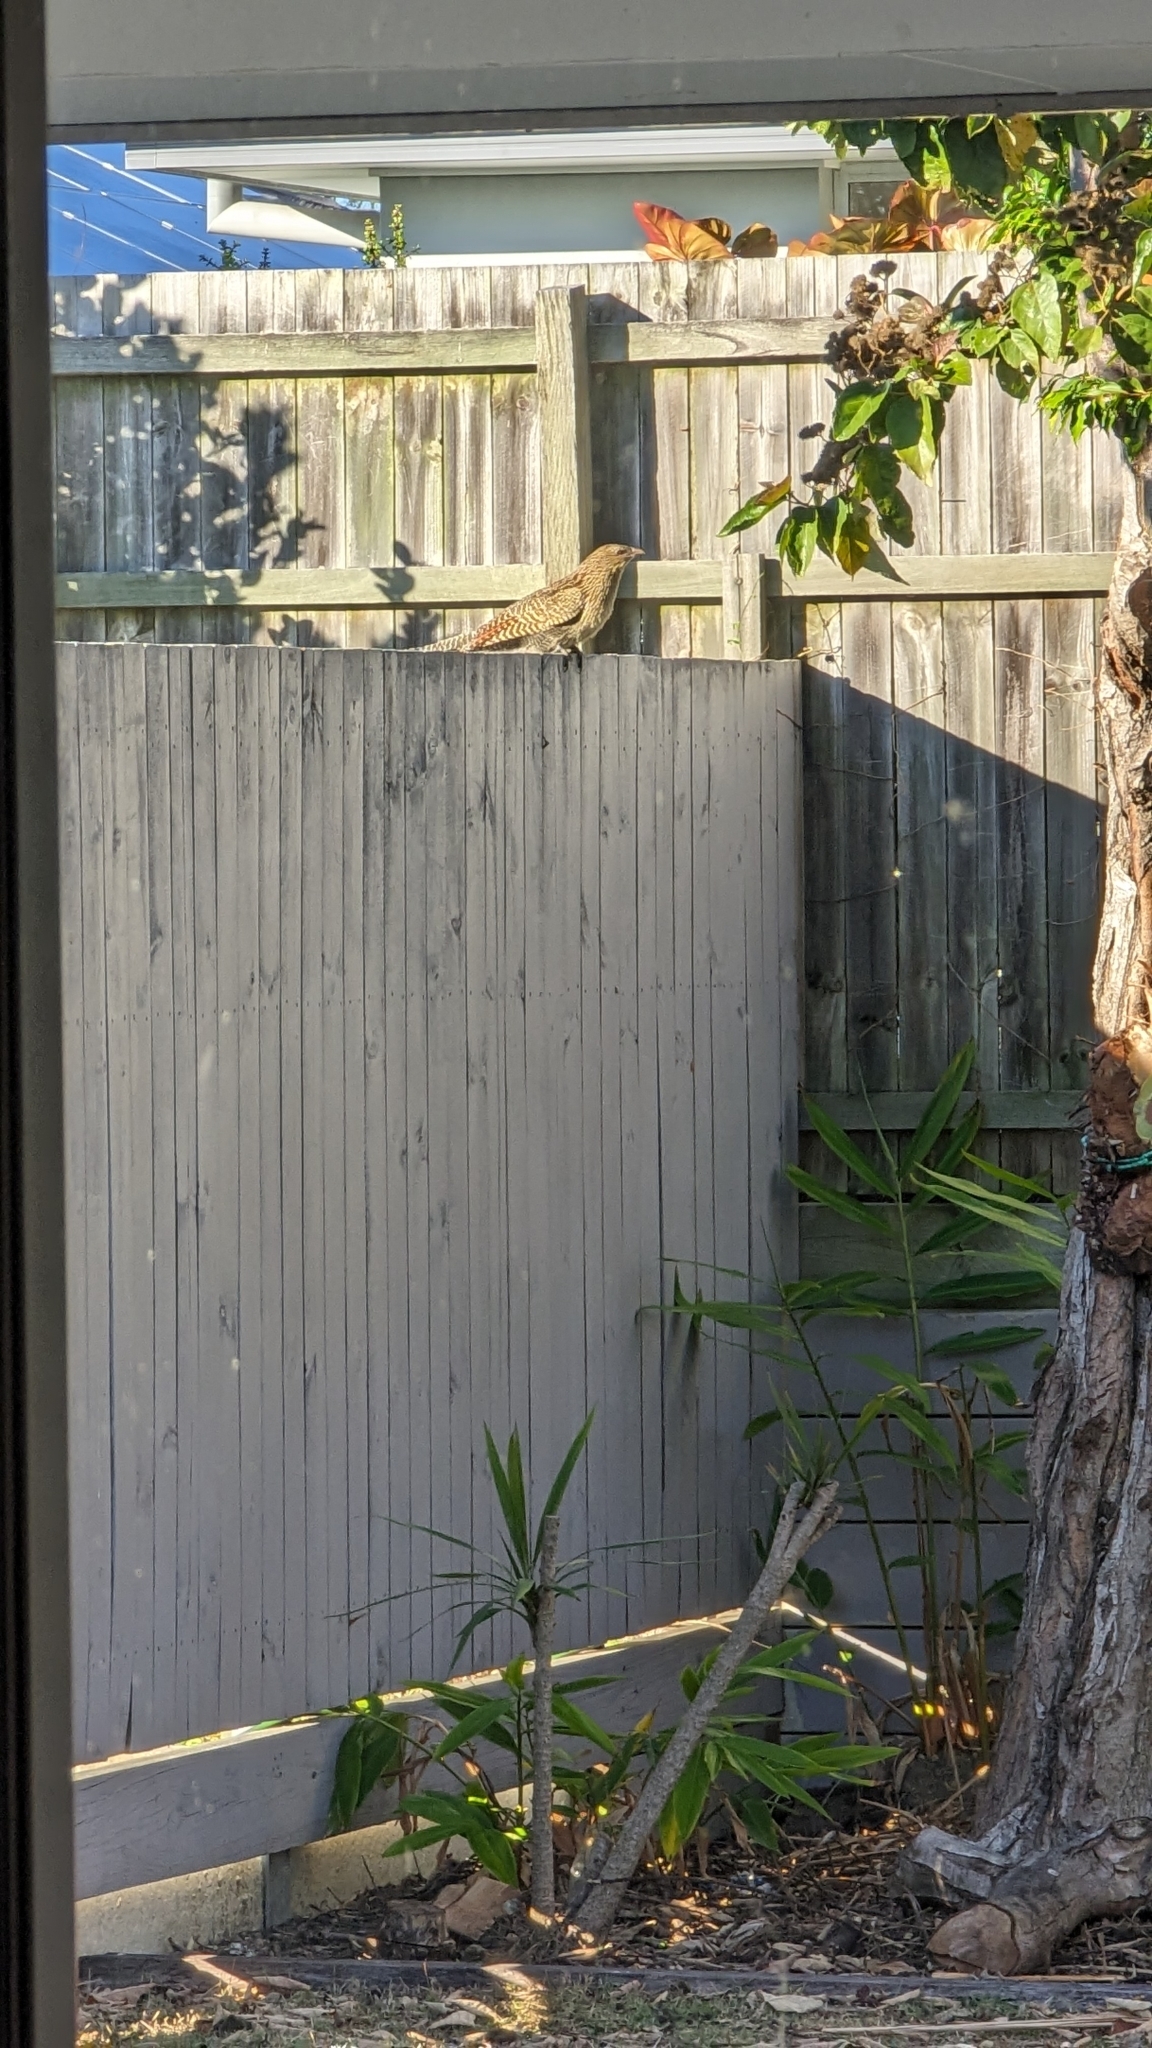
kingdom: Animalia
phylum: Chordata
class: Aves
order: Cuculiformes
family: Cuculidae
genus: Centropus
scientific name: Centropus phasianinus
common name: Pheasant coucal
